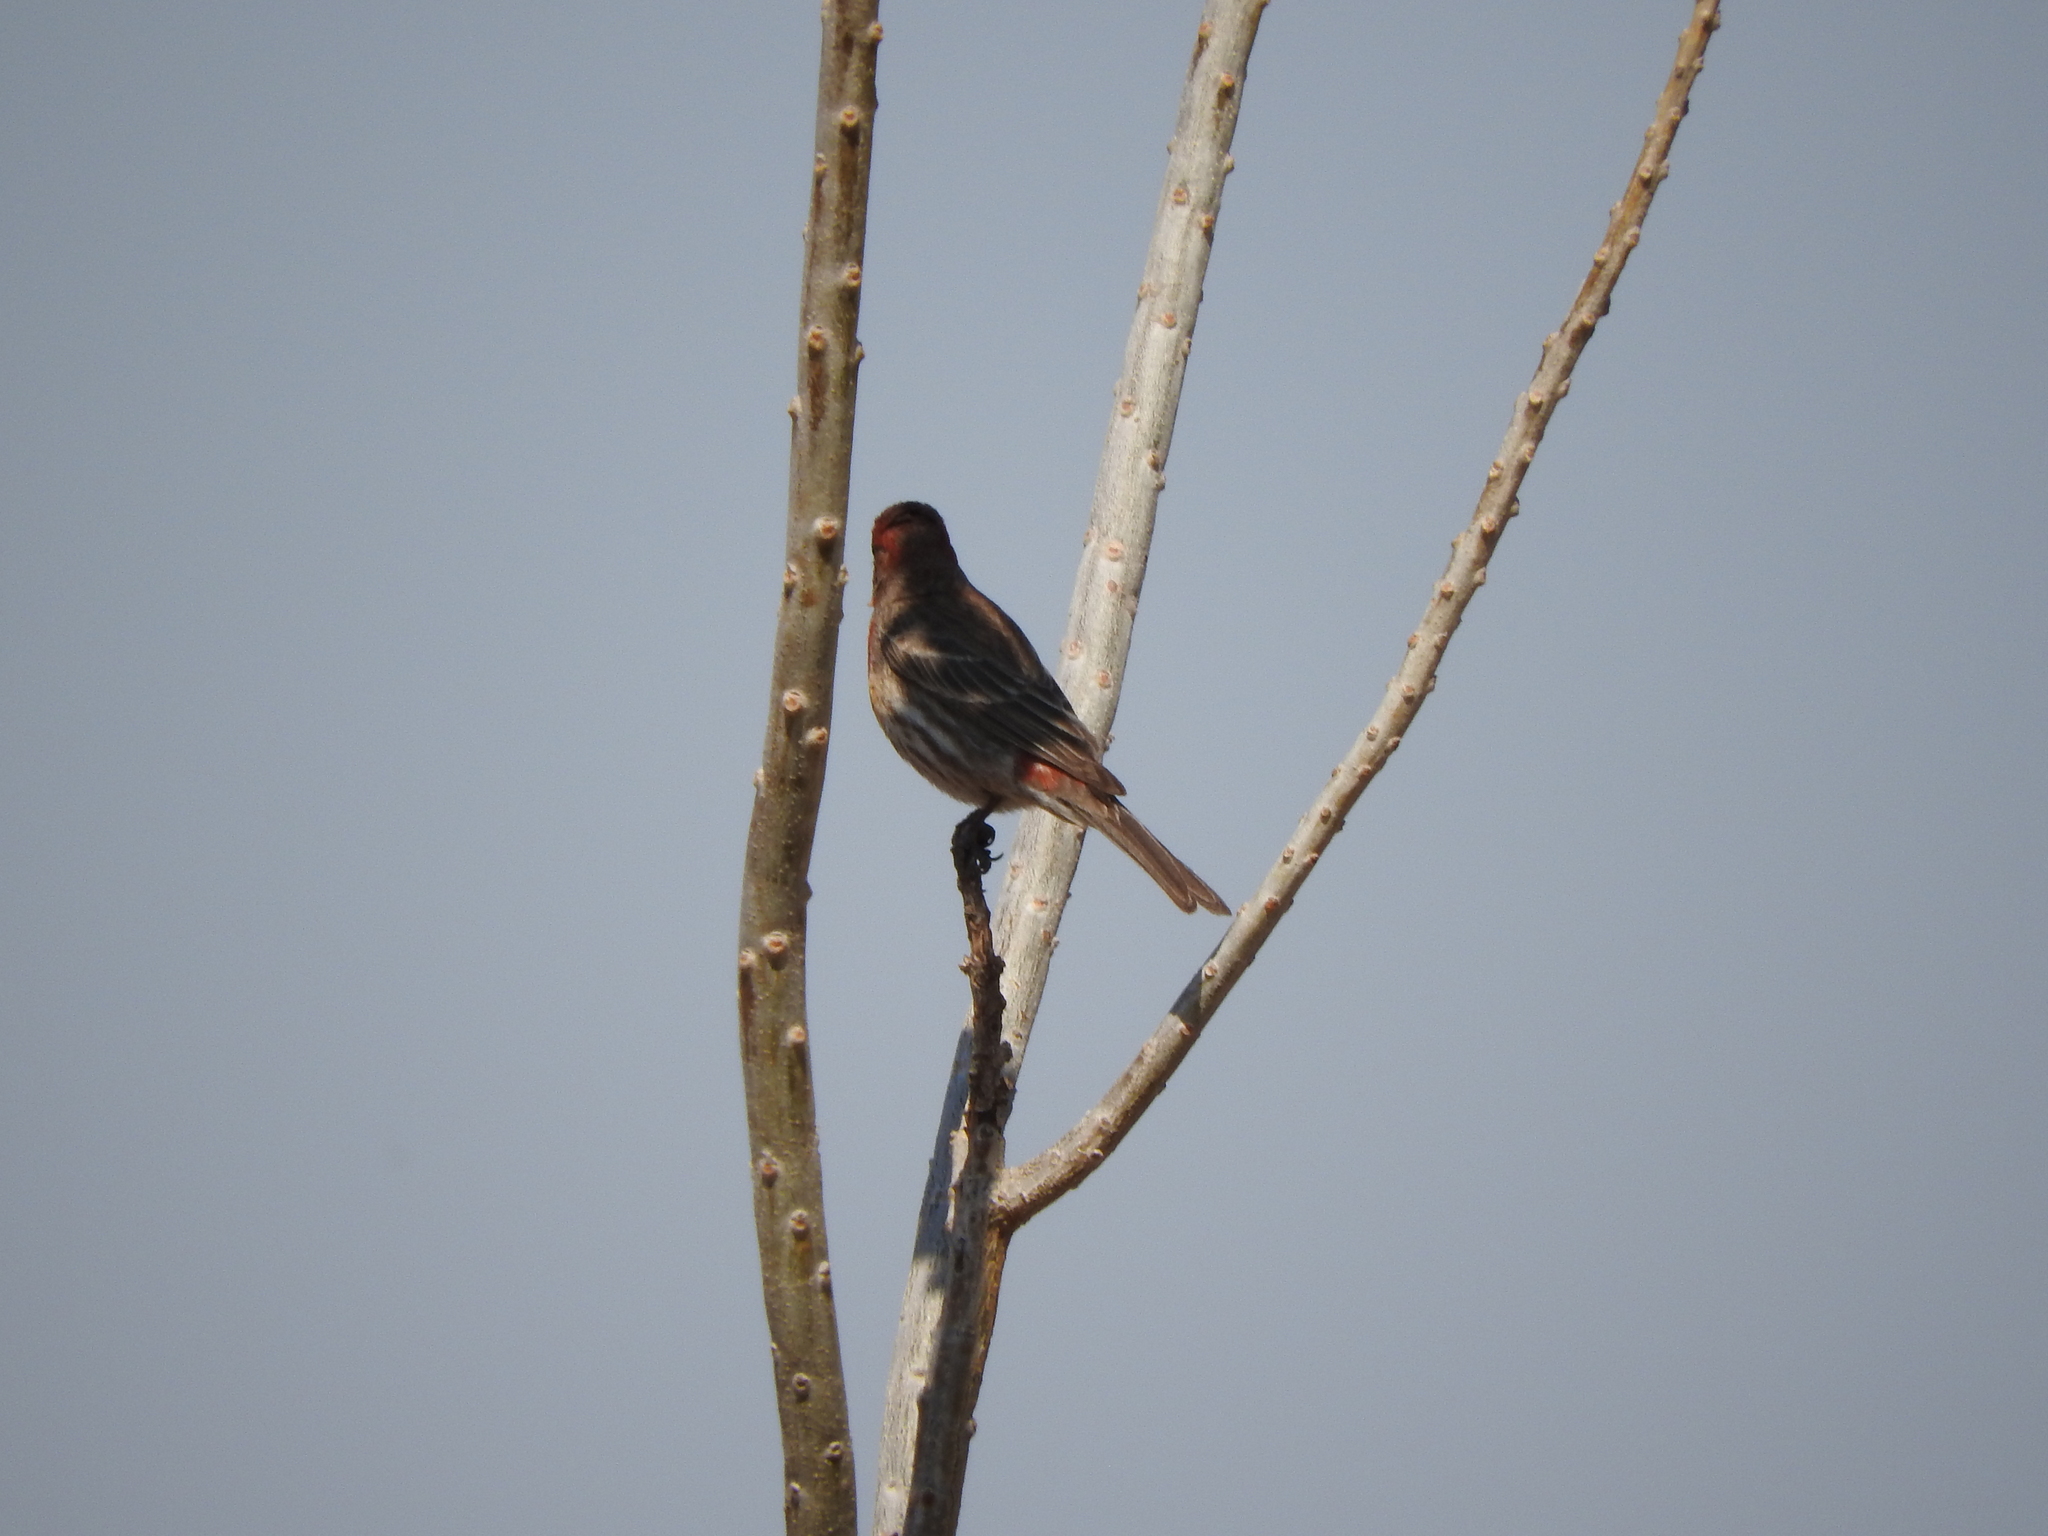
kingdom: Animalia
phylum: Chordata
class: Aves
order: Passeriformes
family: Fringillidae
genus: Haemorhous
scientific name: Haemorhous mexicanus
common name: House finch
